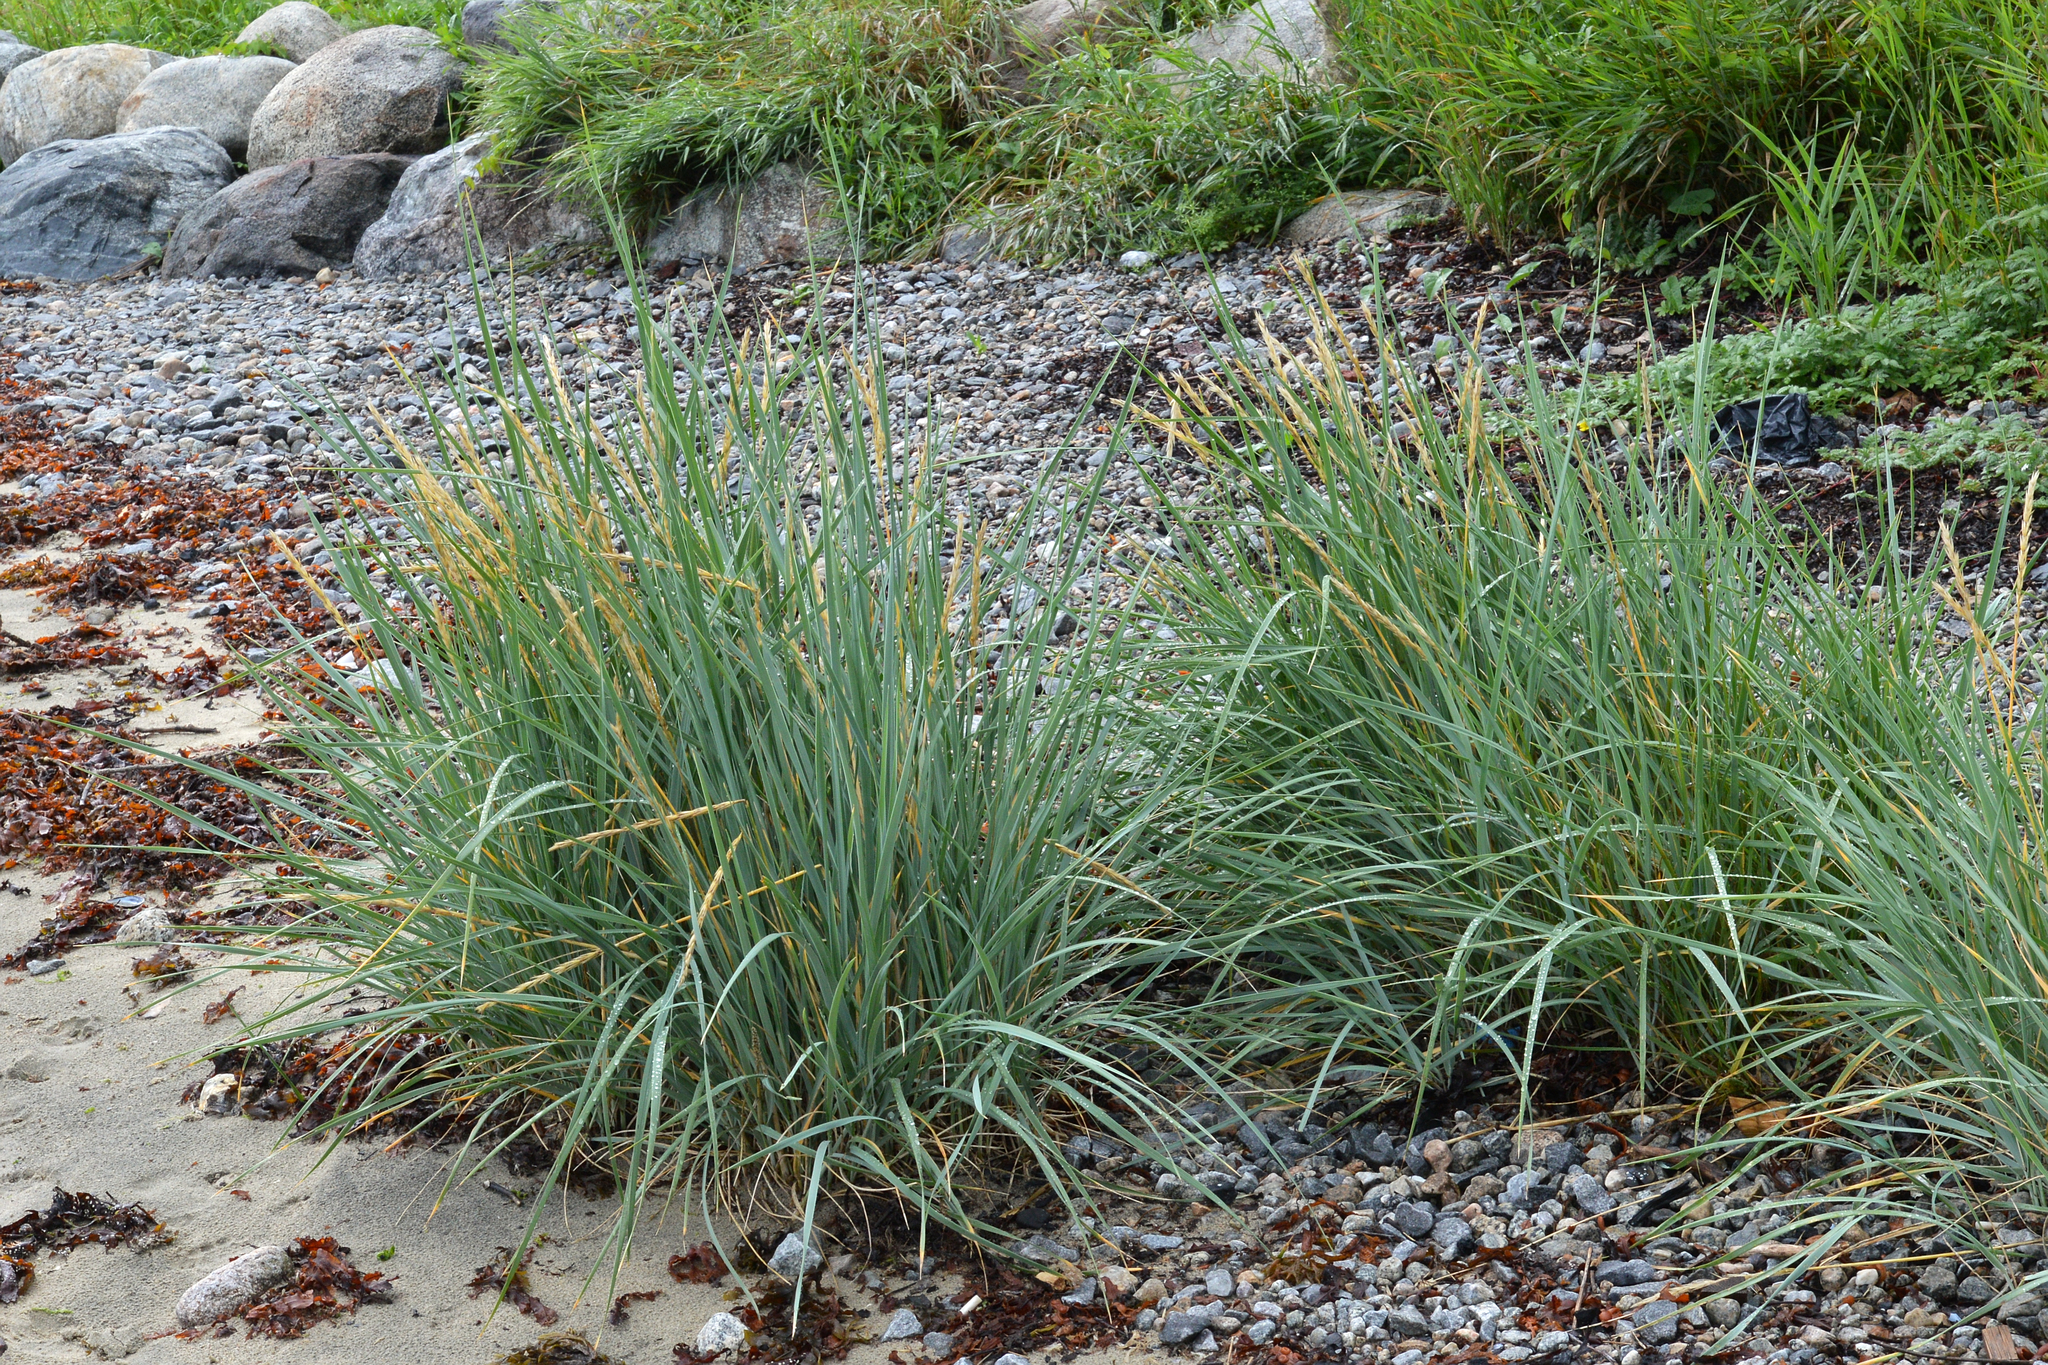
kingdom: Plantae
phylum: Tracheophyta
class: Liliopsida
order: Poales
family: Poaceae
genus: Leymus
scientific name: Leymus arenarius
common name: Lyme-grass
